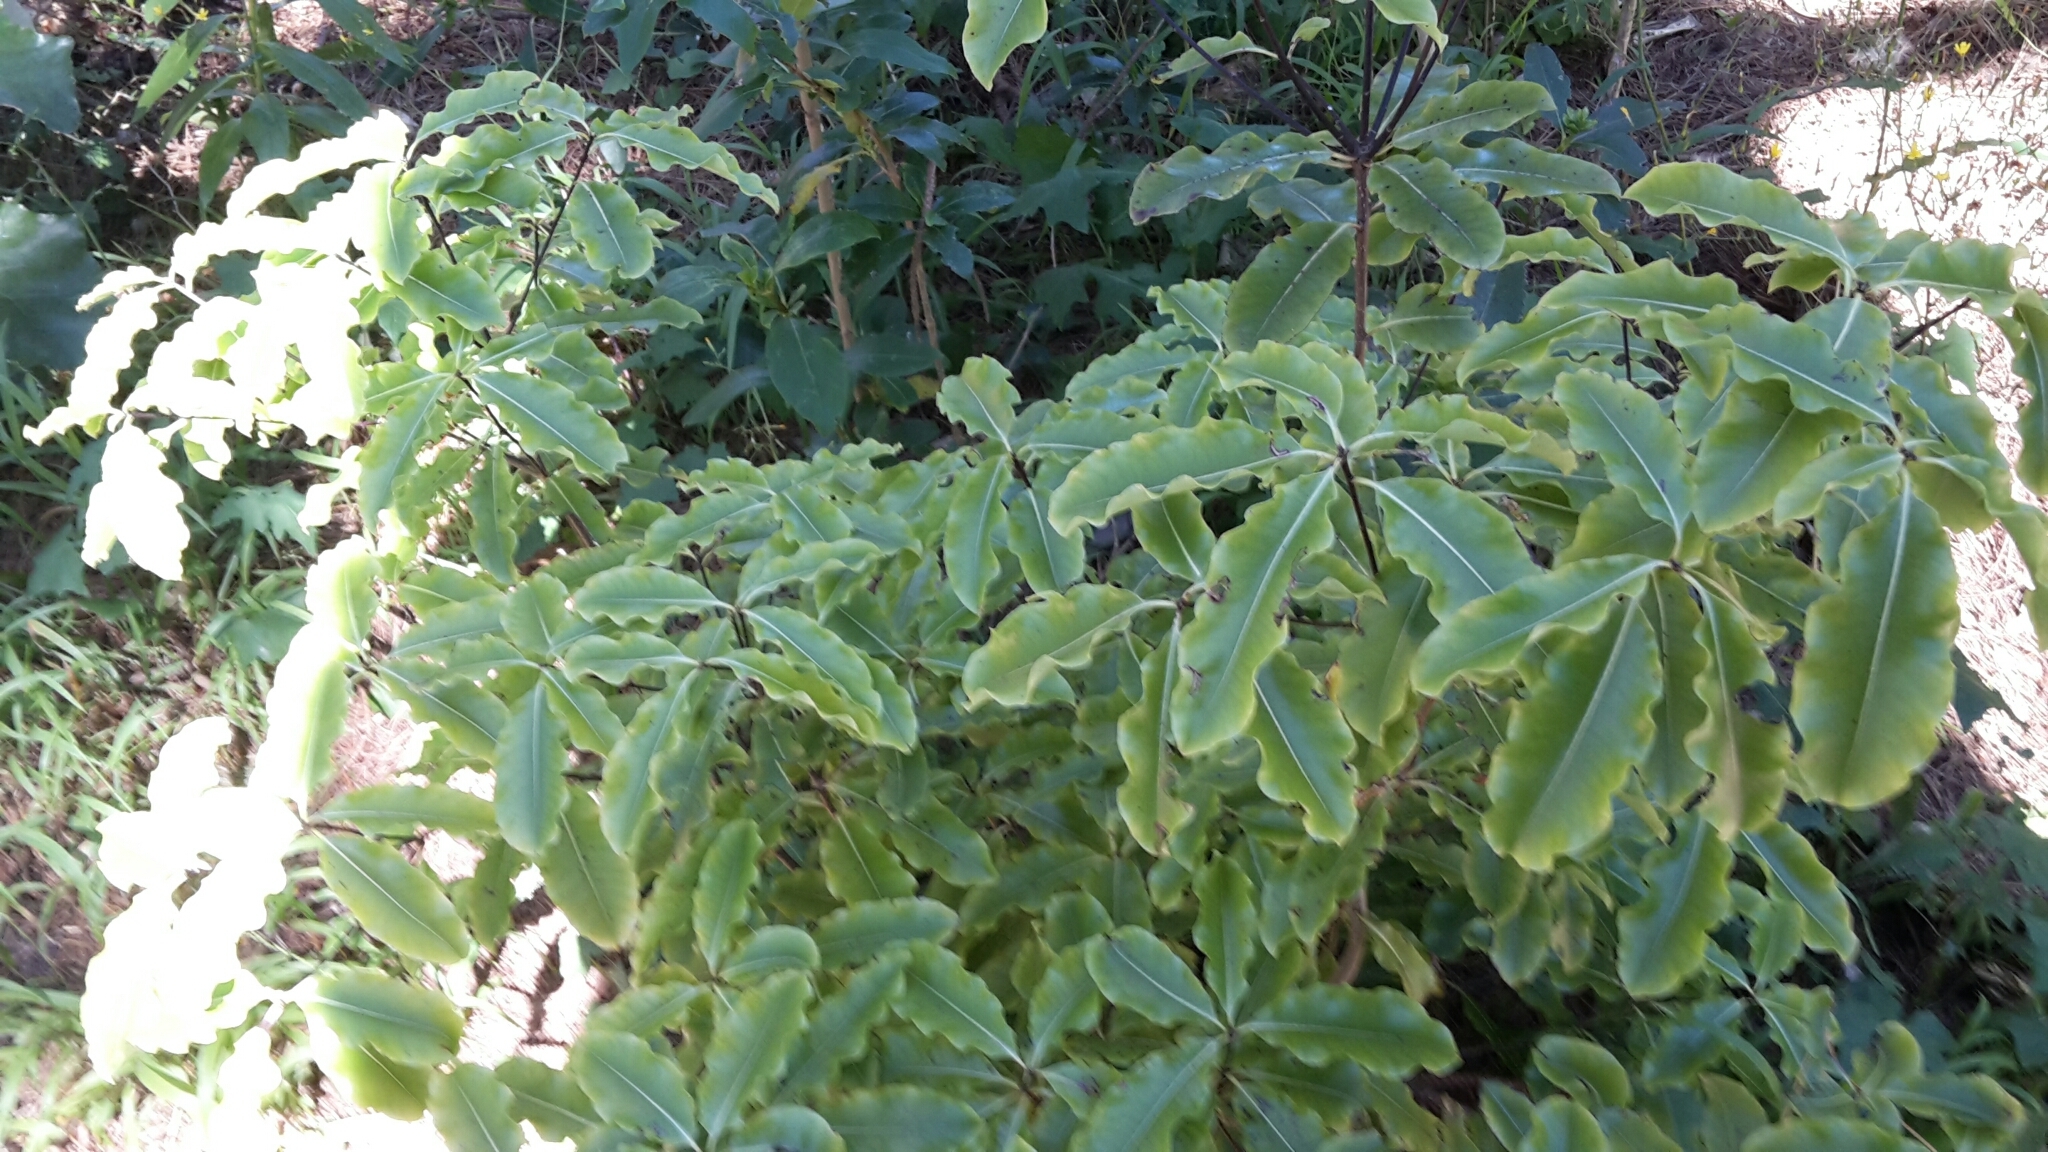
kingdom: Plantae
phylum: Tracheophyta
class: Magnoliopsida
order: Apiales
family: Pittosporaceae
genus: Pittosporum
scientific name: Pittosporum eugenioides
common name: Lemonwood
